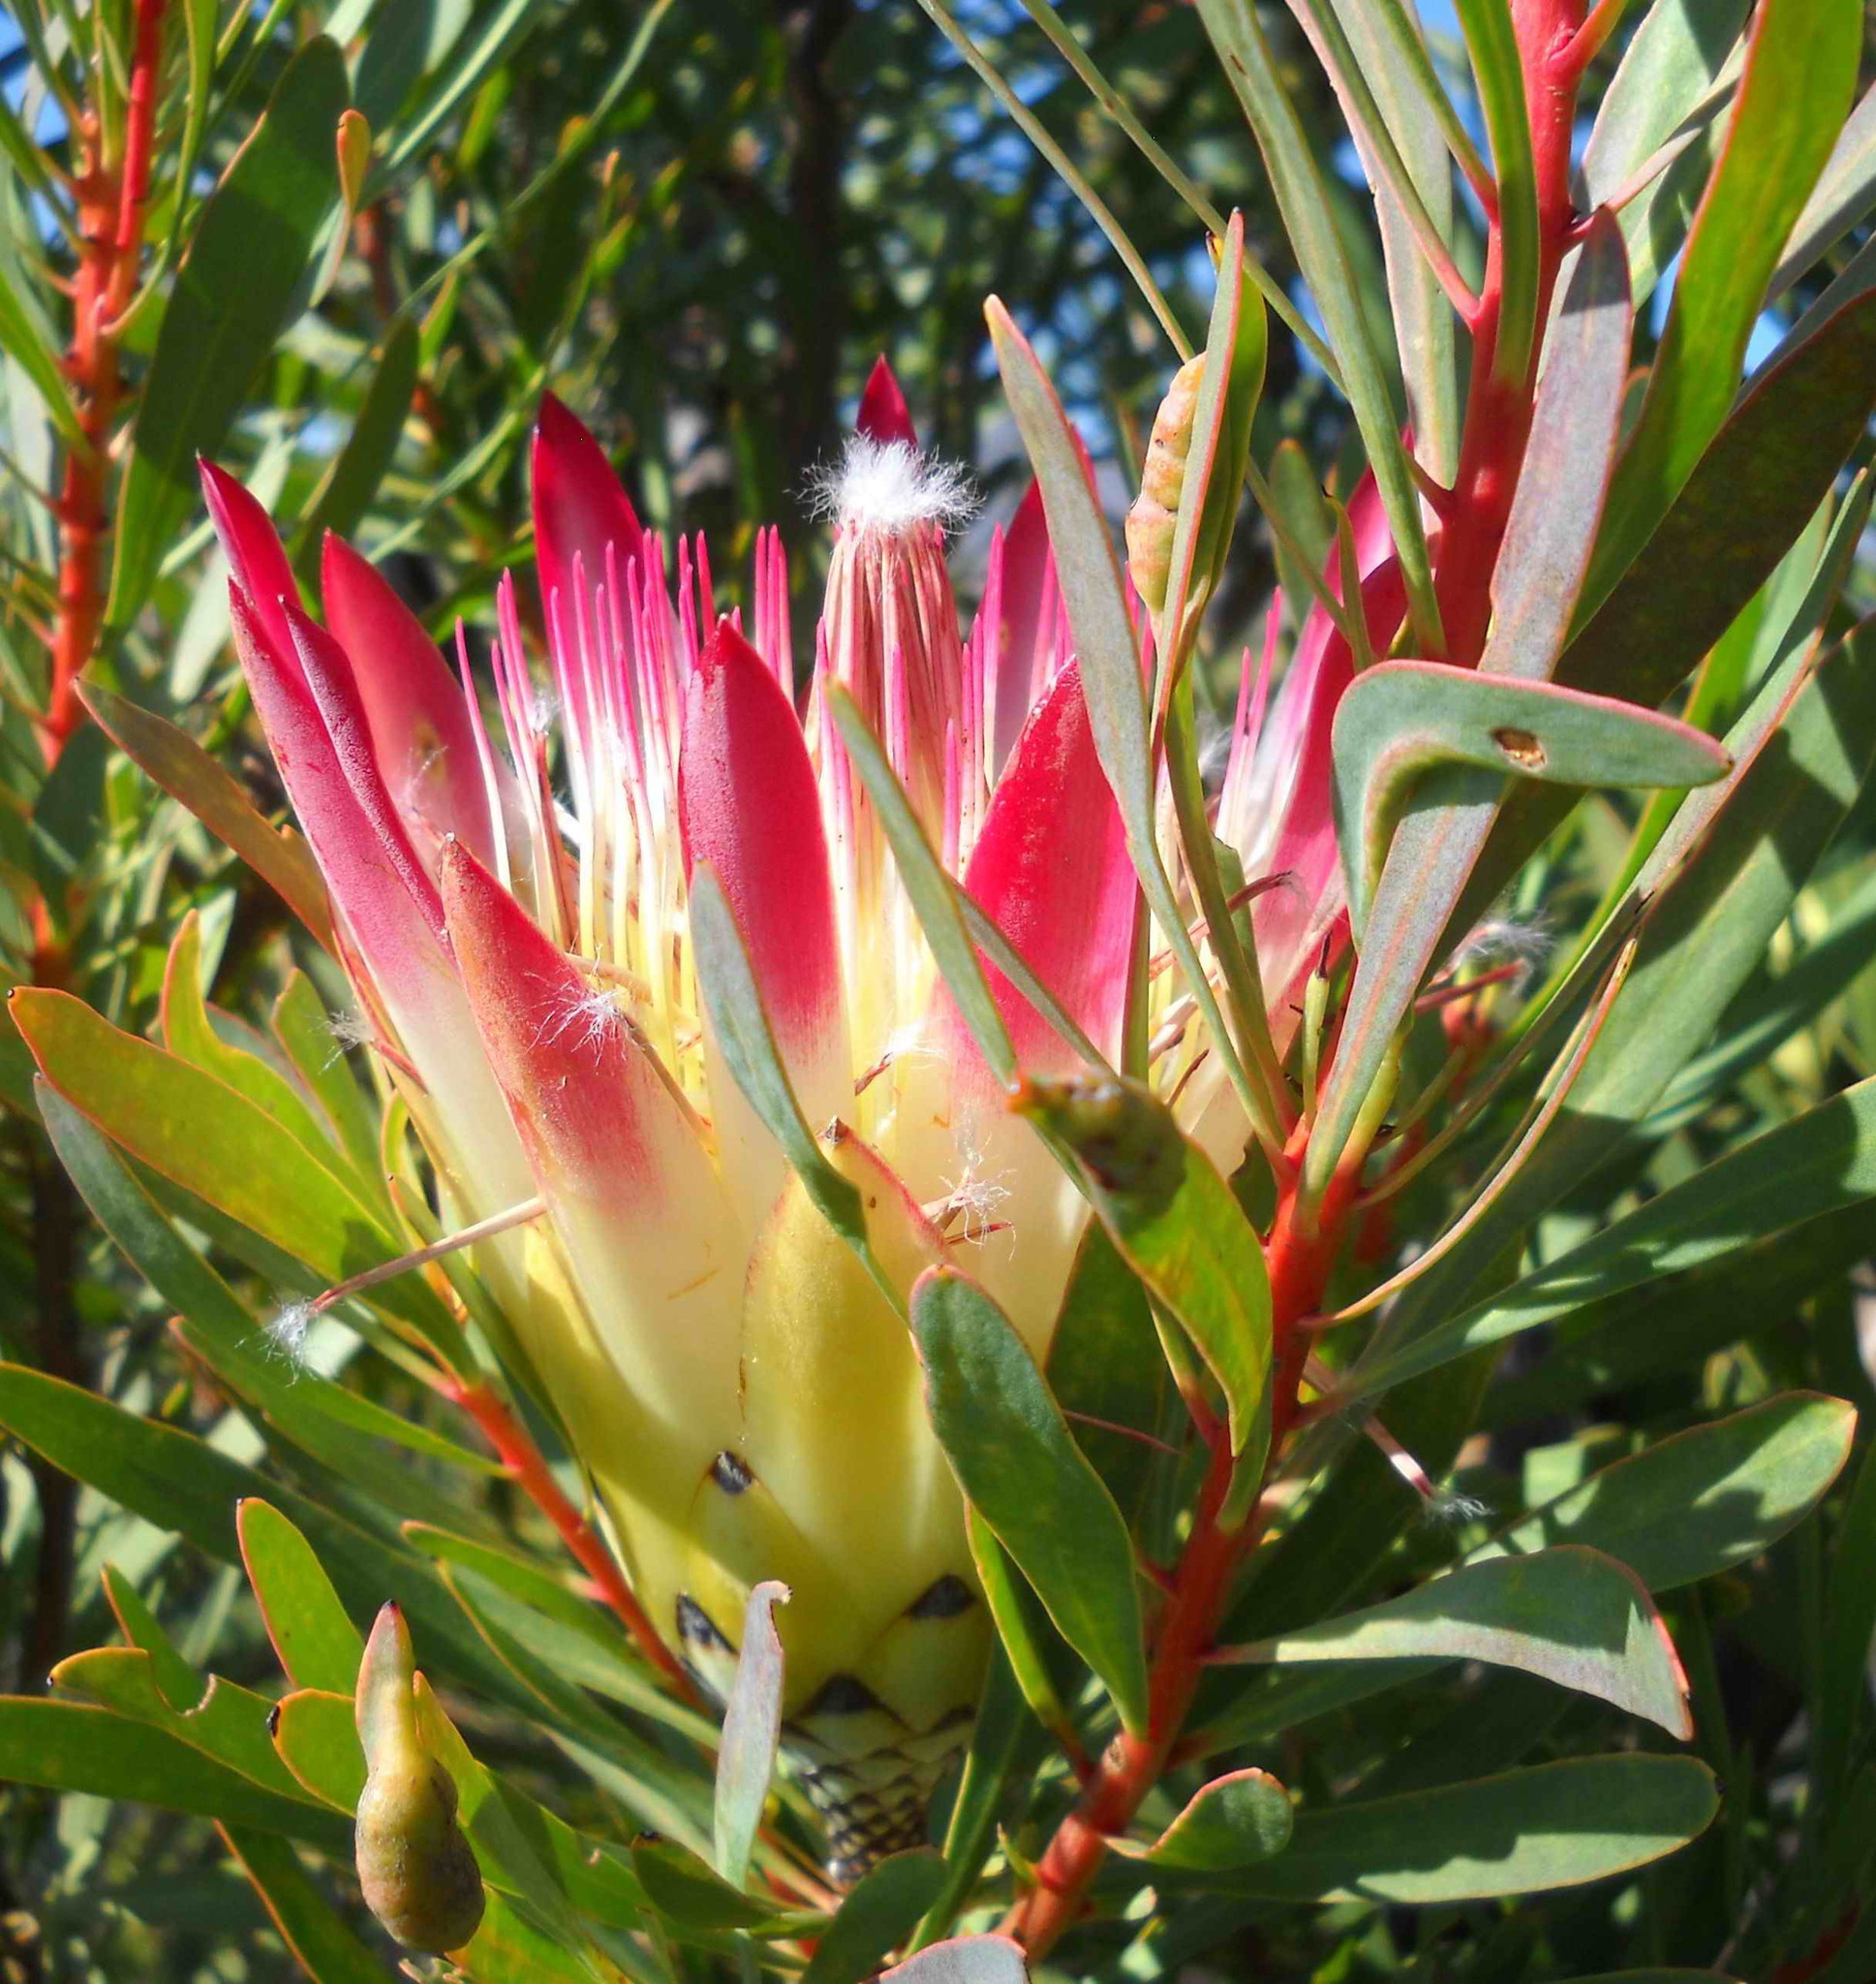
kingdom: Plantae
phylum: Tracheophyta
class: Magnoliopsida
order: Proteales
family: Proteaceae
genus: Protea
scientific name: Protea repens
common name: Sugarbush
